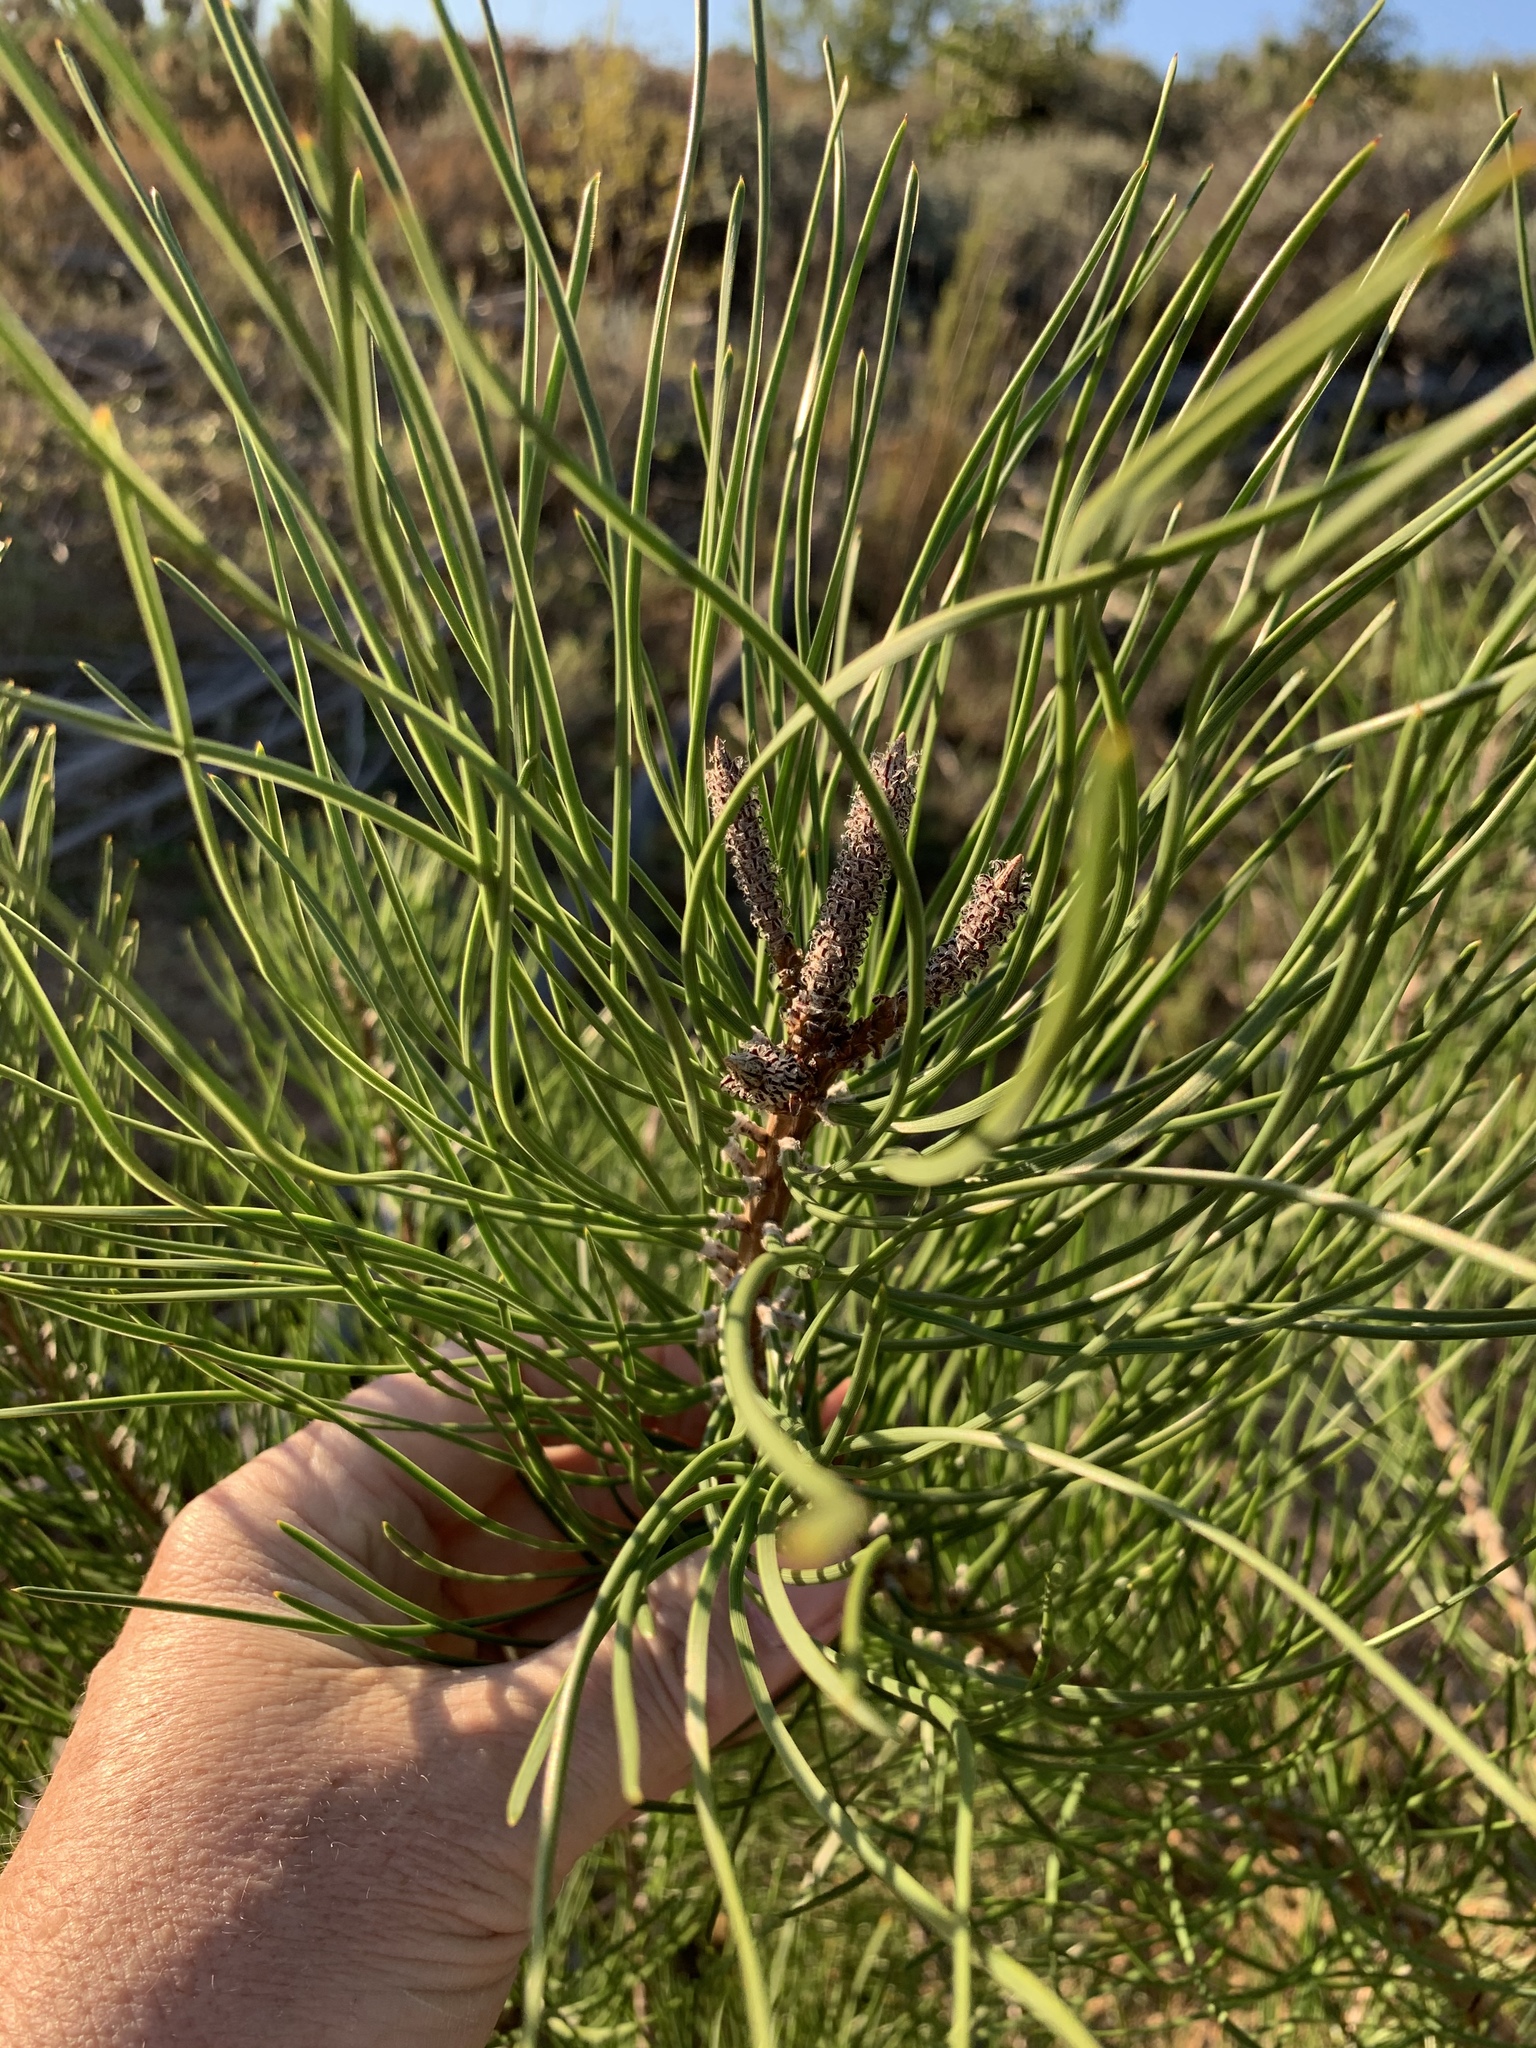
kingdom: Plantae
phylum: Tracheophyta
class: Pinopsida
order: Pinales
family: Pinaceae
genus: Pinus
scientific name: Pinus pinaster
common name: Maritime pine
